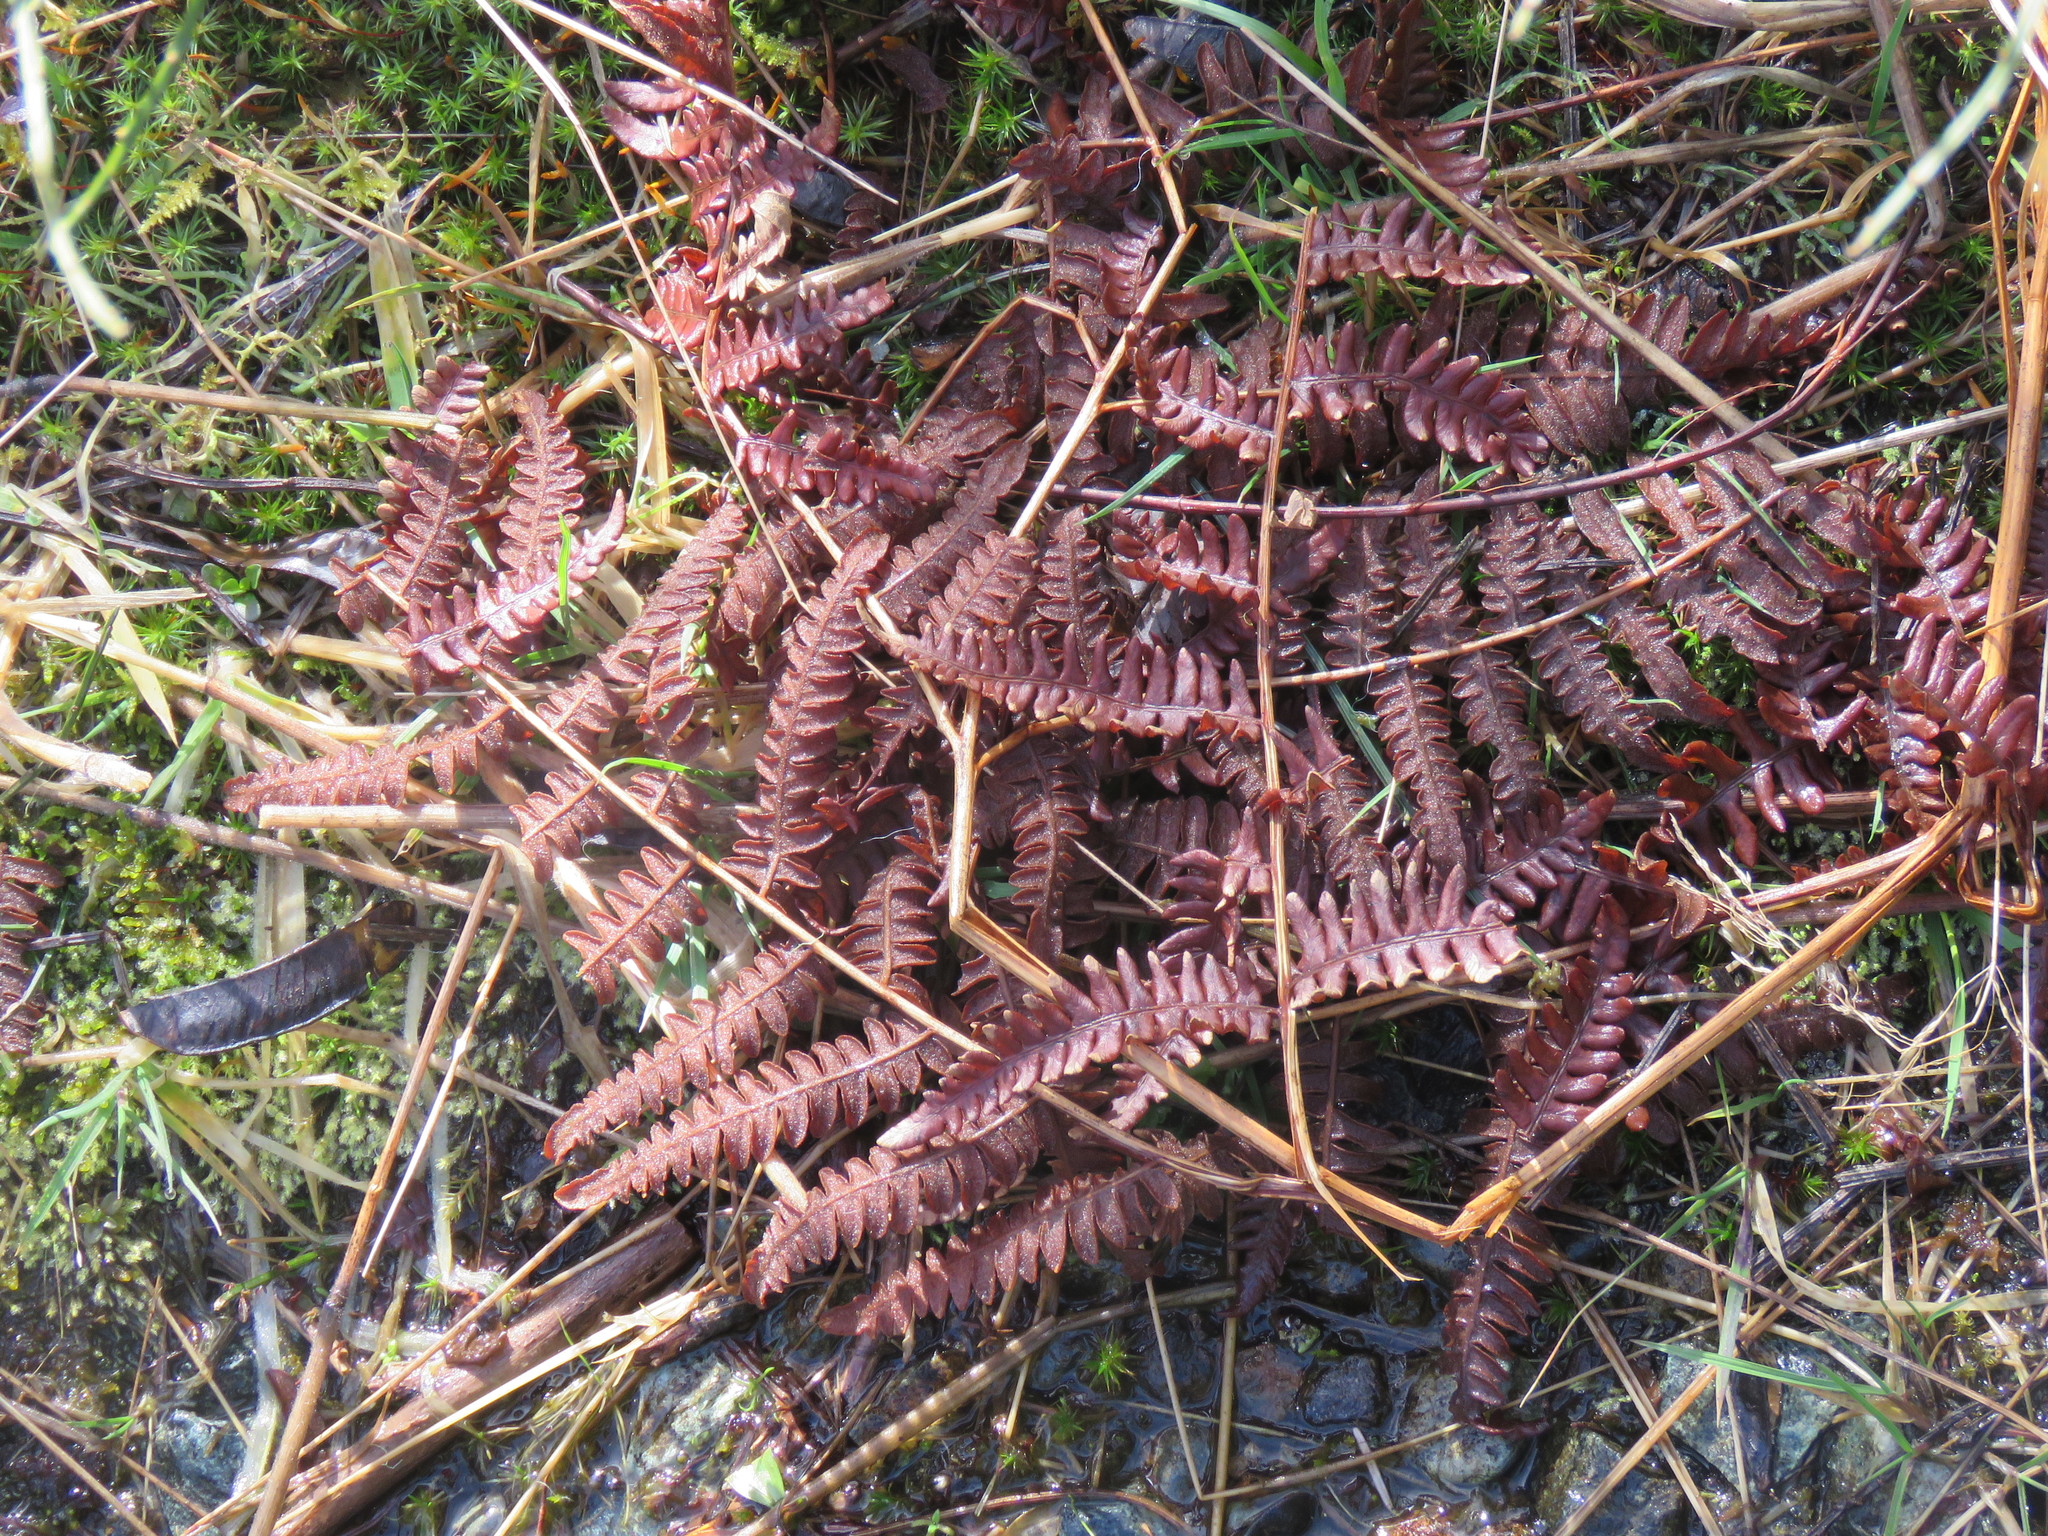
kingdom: Plantae
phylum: Tracheophyta
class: Polypodiopsida
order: Polypodiales
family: Dennstaedtiaceae
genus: Pteridium
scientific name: Pteridium aquilinum
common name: Bracken
